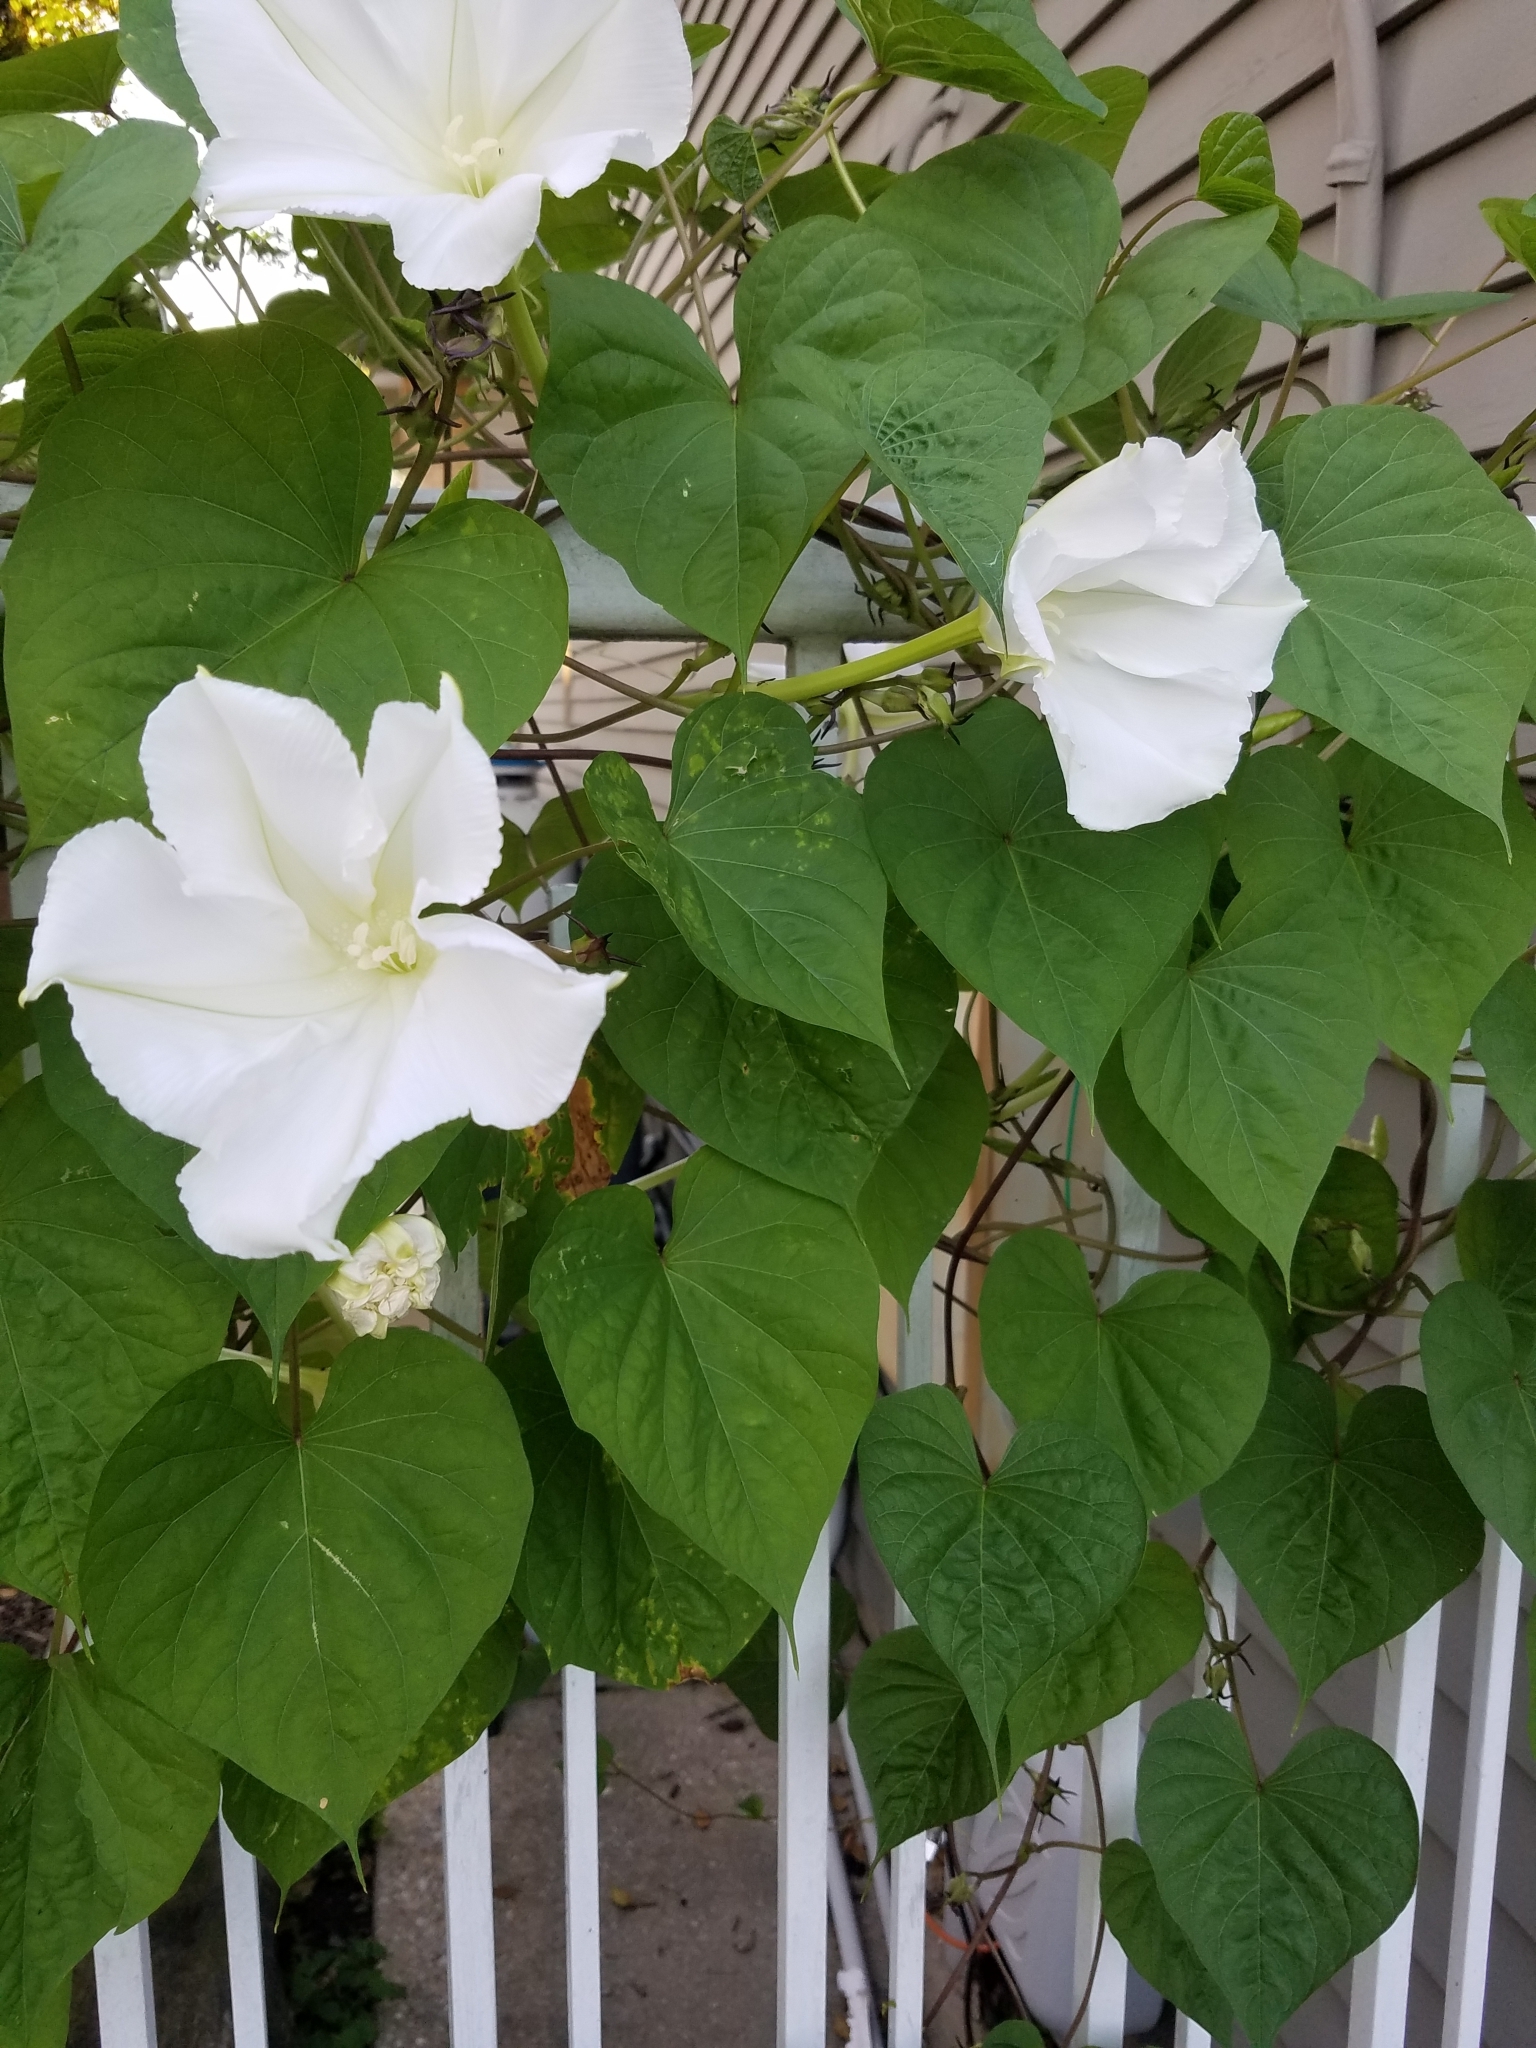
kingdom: Plantae
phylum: Tracheophyta
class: Magnoliopsida
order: Solanales
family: Convolvulaceae
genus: Ipomoea
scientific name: Ipomoea alba
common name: Moonflower
